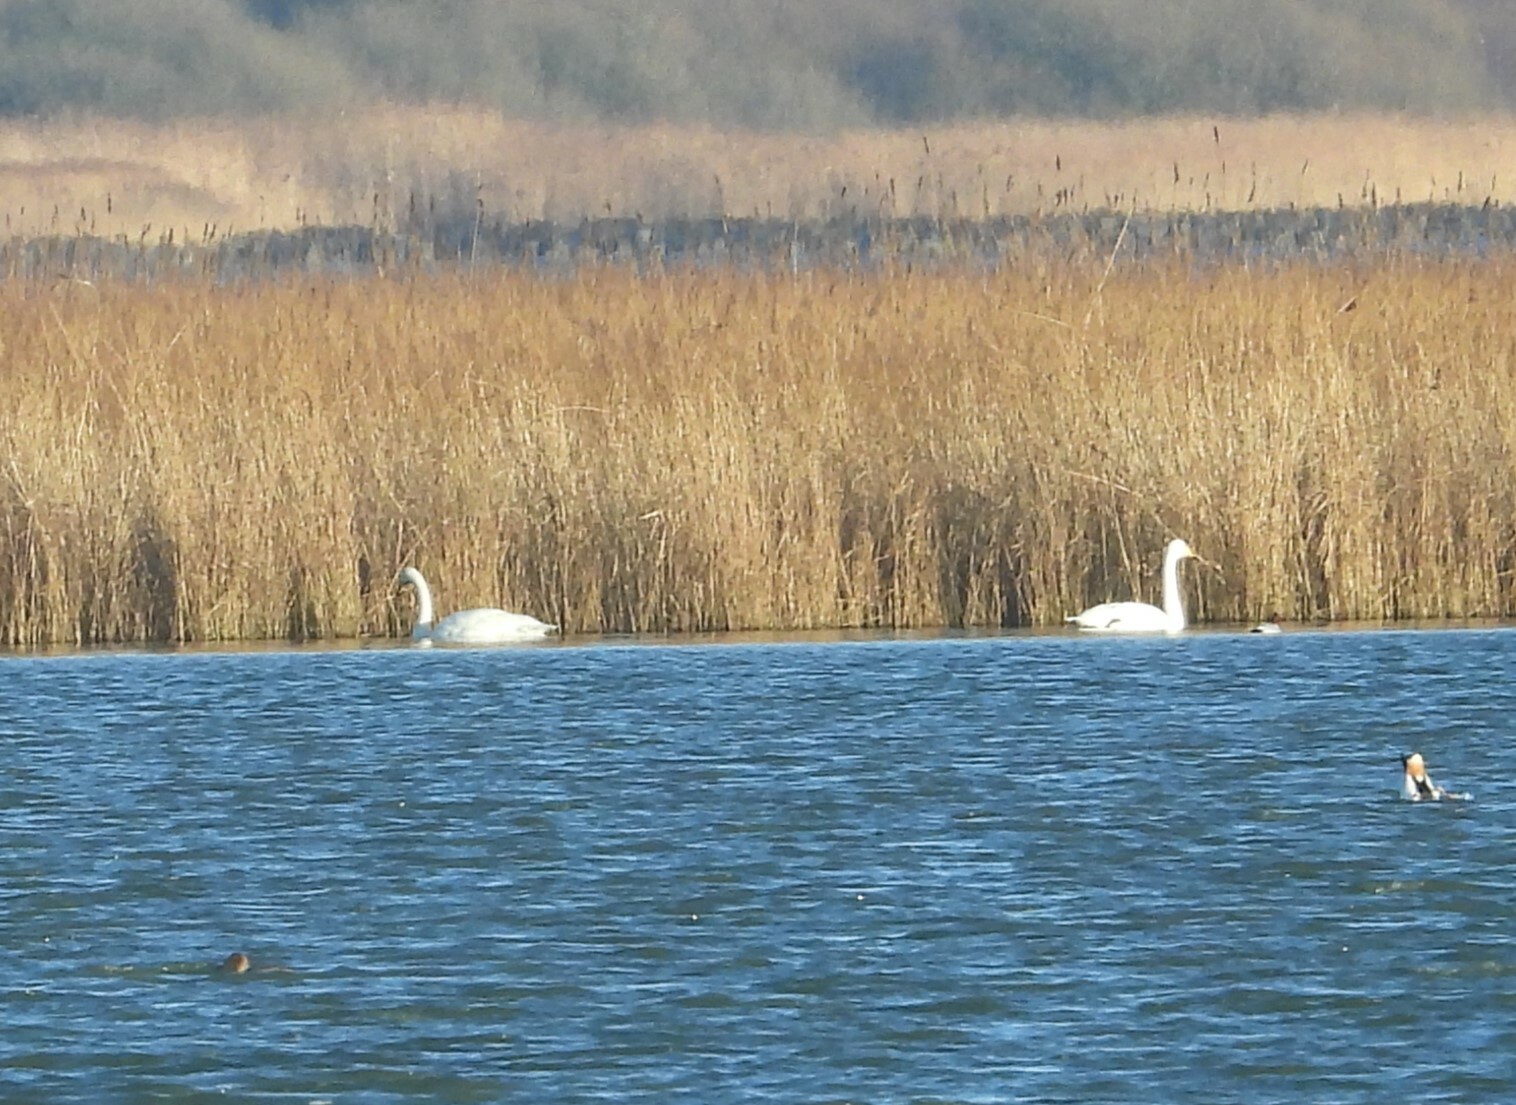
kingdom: Animalia
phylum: Chordata
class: Aves
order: Anseriformes
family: Anatidae
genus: Cygnus
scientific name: Cygnus cygnus
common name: Whooper swan
